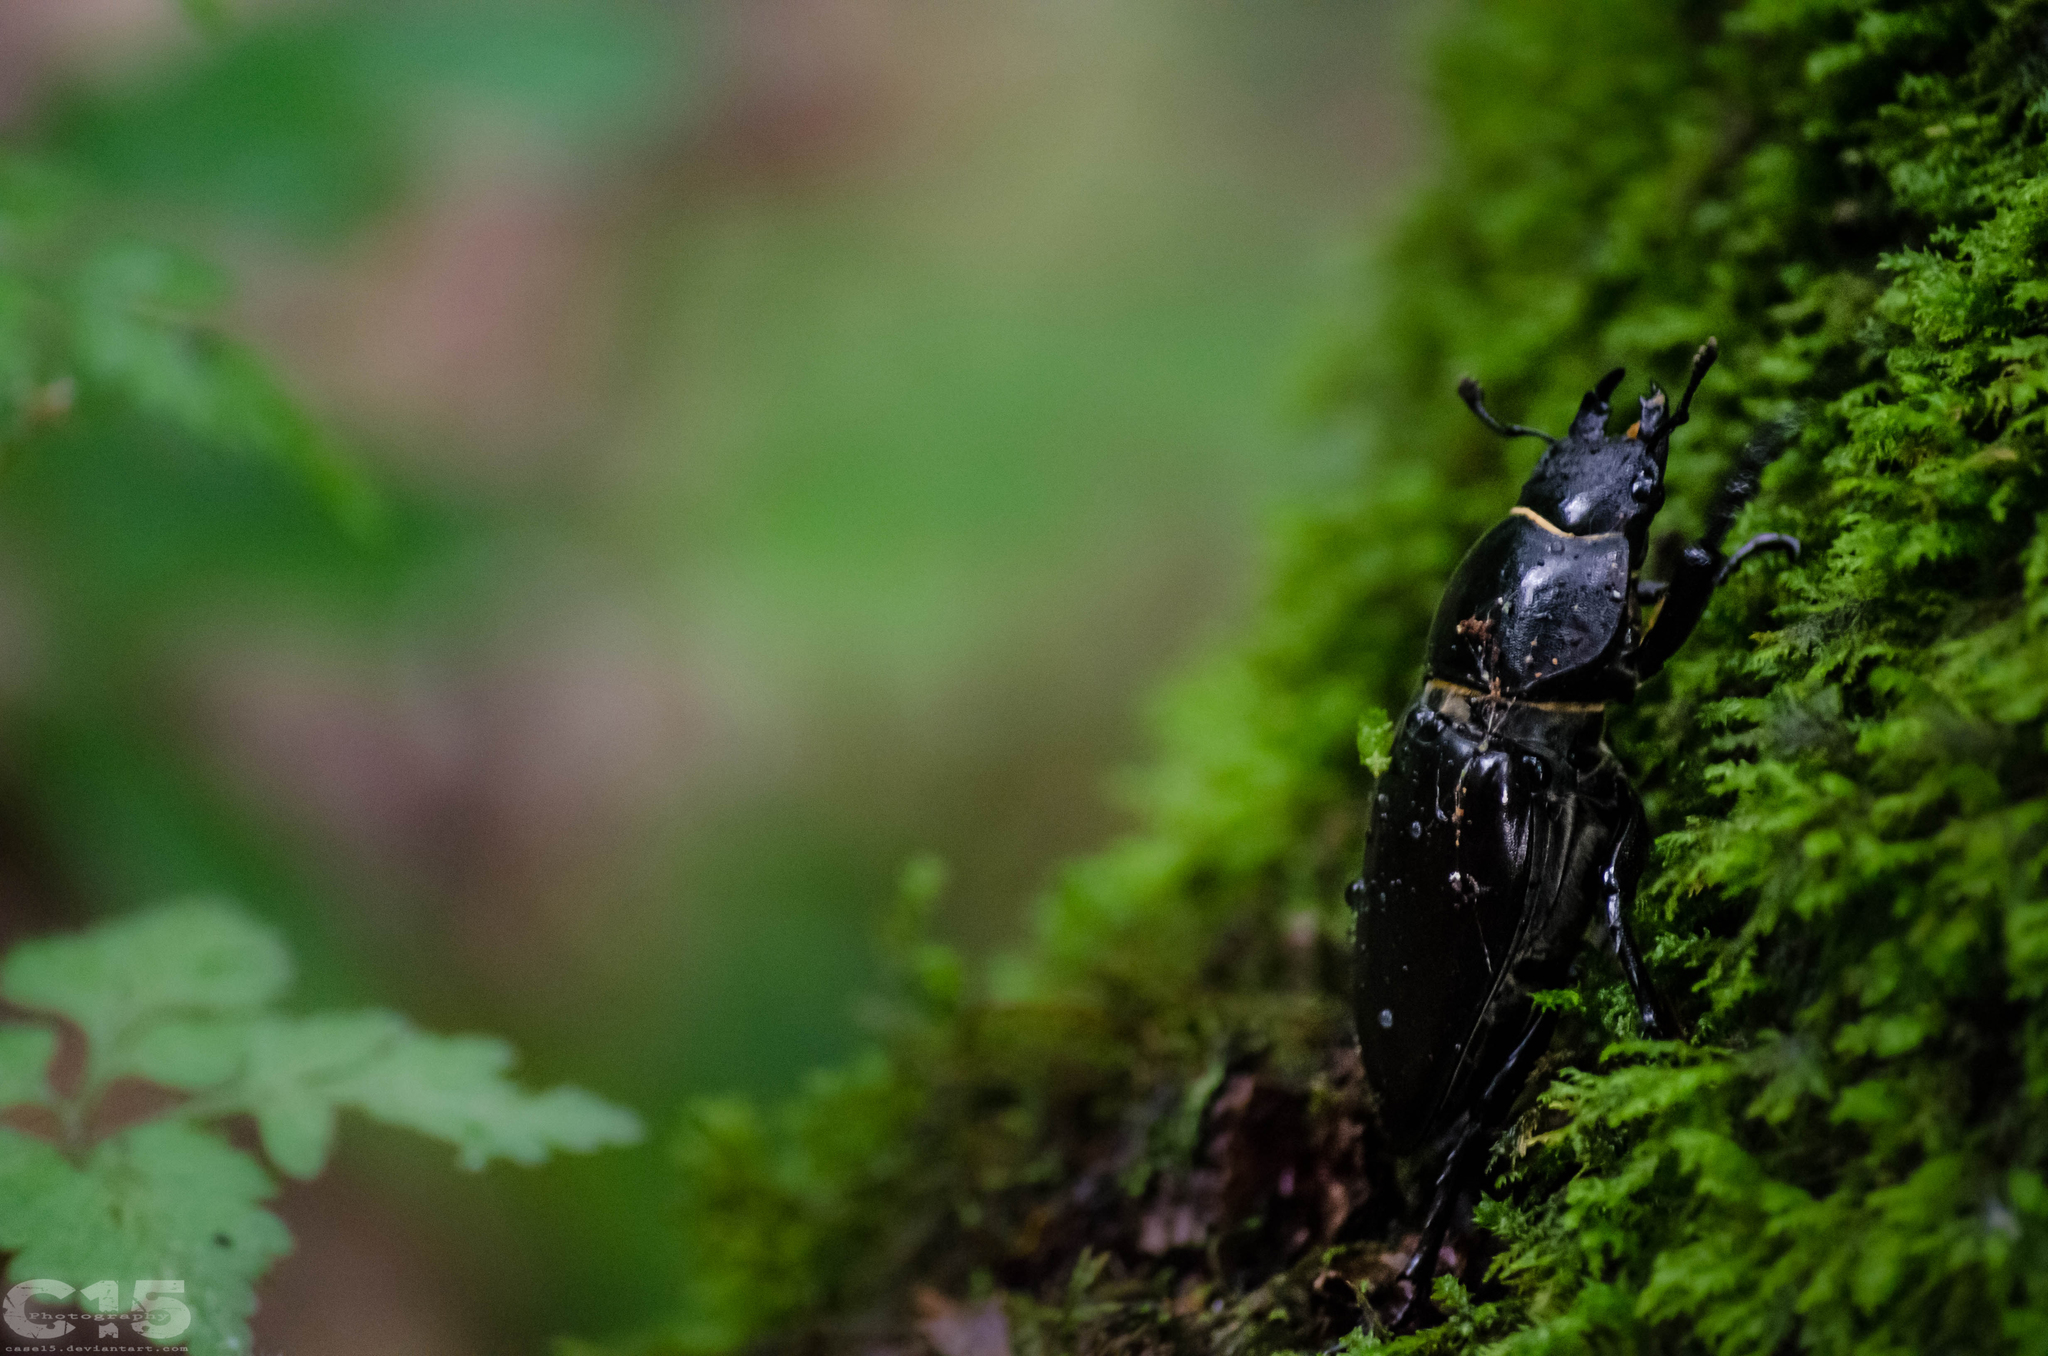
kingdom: Animalia
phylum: Arthropoda
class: Insecta
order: Coleoptera
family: Lucanidae
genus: Lucanus
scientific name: Lucanus cervus
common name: Stag beetle
